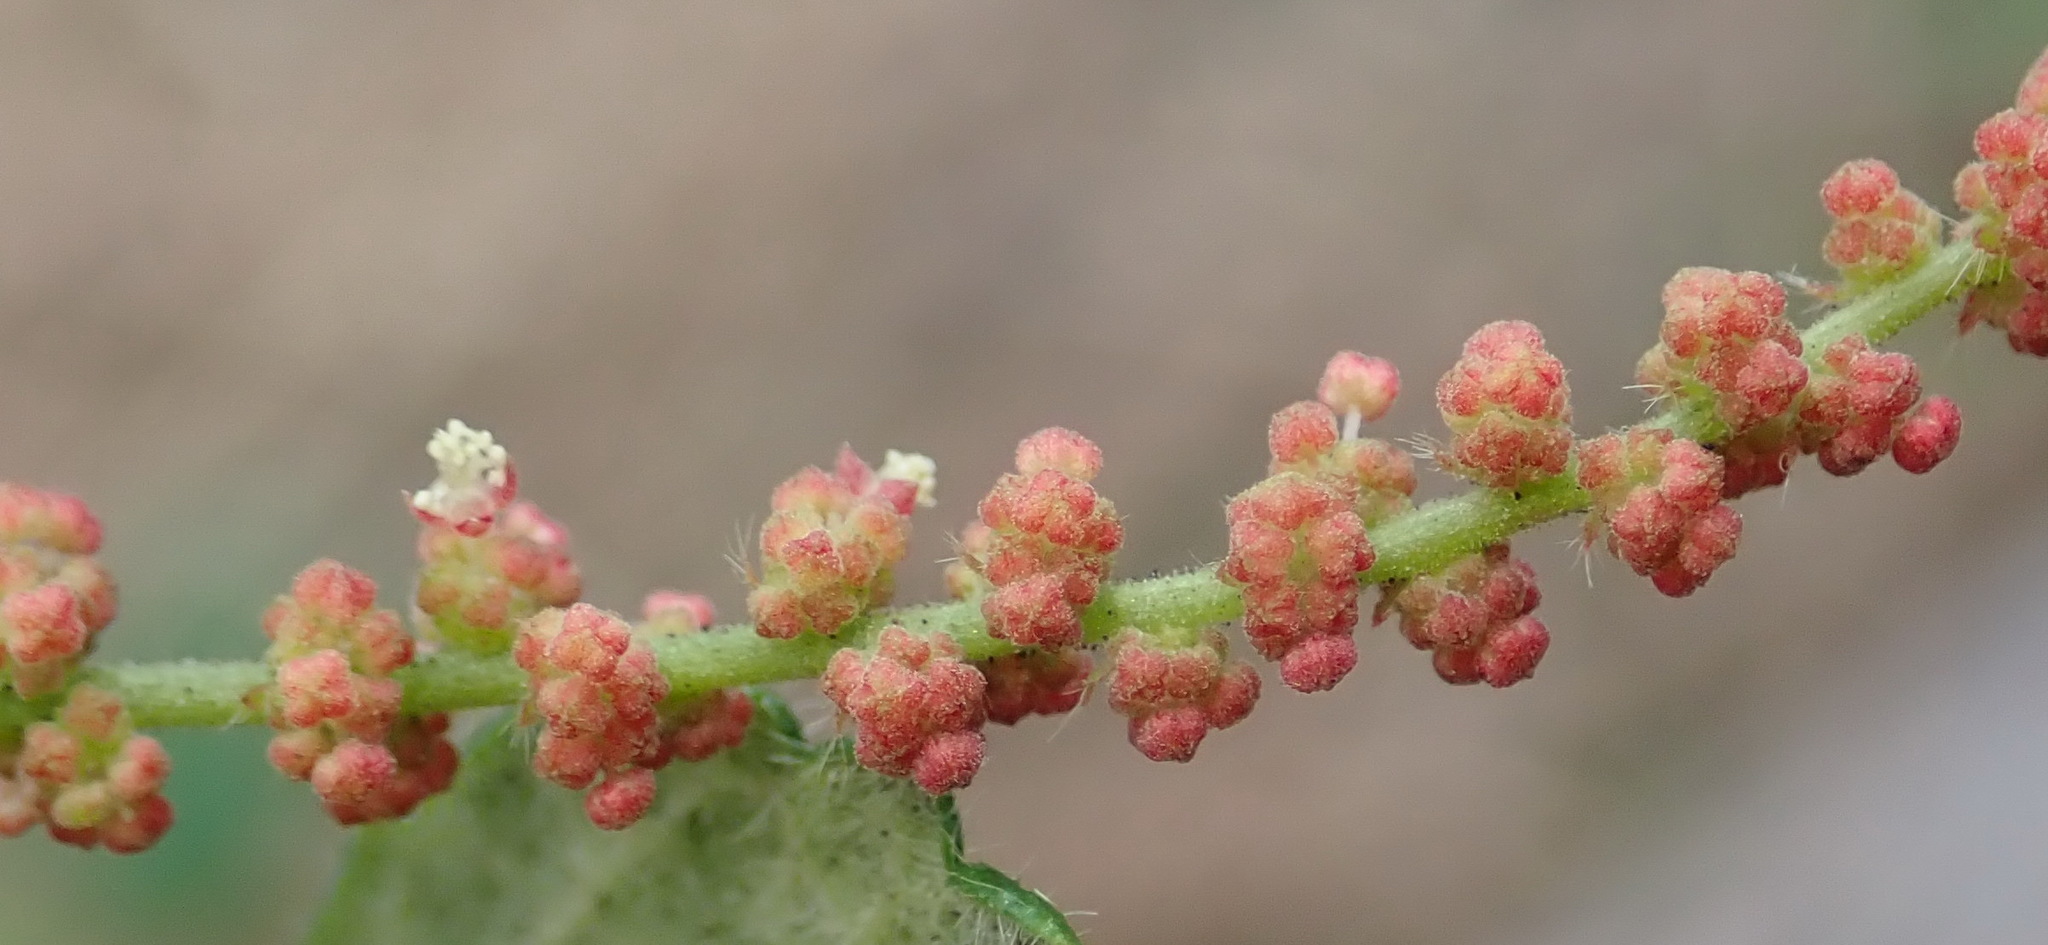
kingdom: Plantae
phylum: Tracheophyta
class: Magnoliopsida
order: Malpighiales
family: Euphorbiaceae
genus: Bernardia
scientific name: Bernardia corensis
